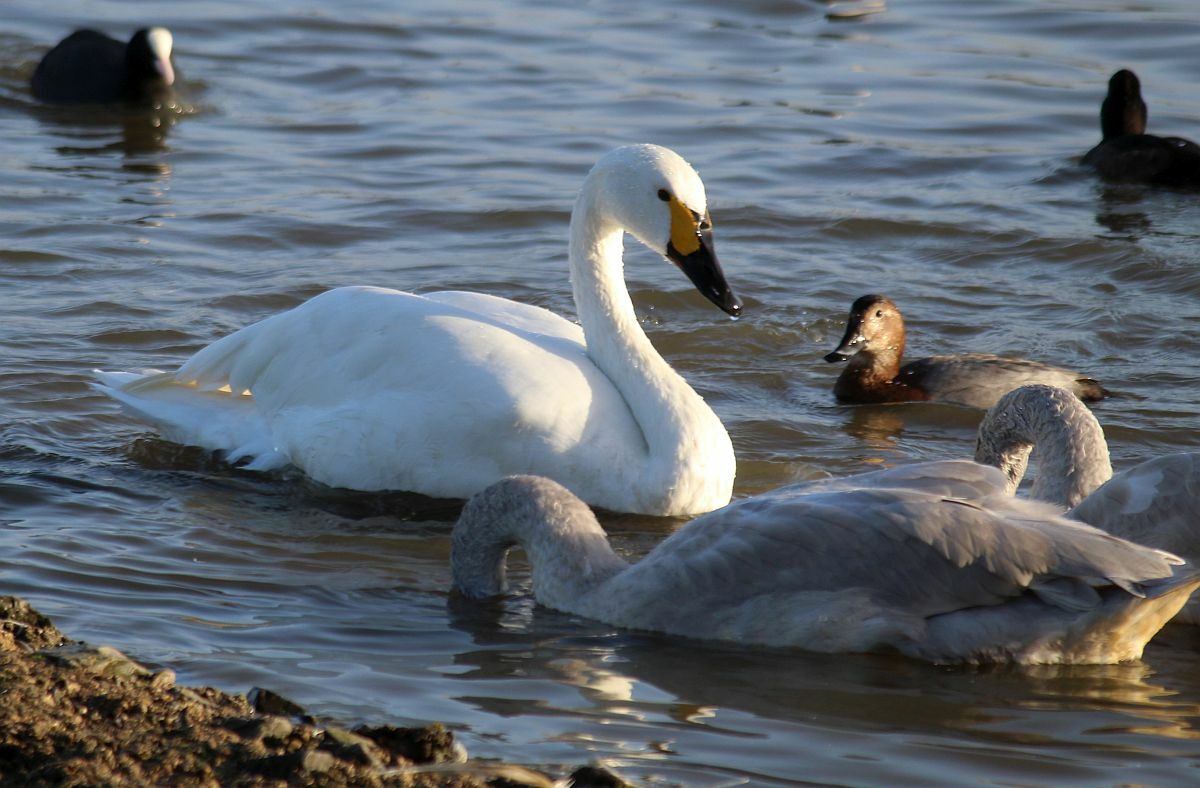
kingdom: Animalia
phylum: Chordata
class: Aves
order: Anseriformes
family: Anatidae
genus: Cygnus
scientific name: Cygnus columbianus
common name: Tundra swan
